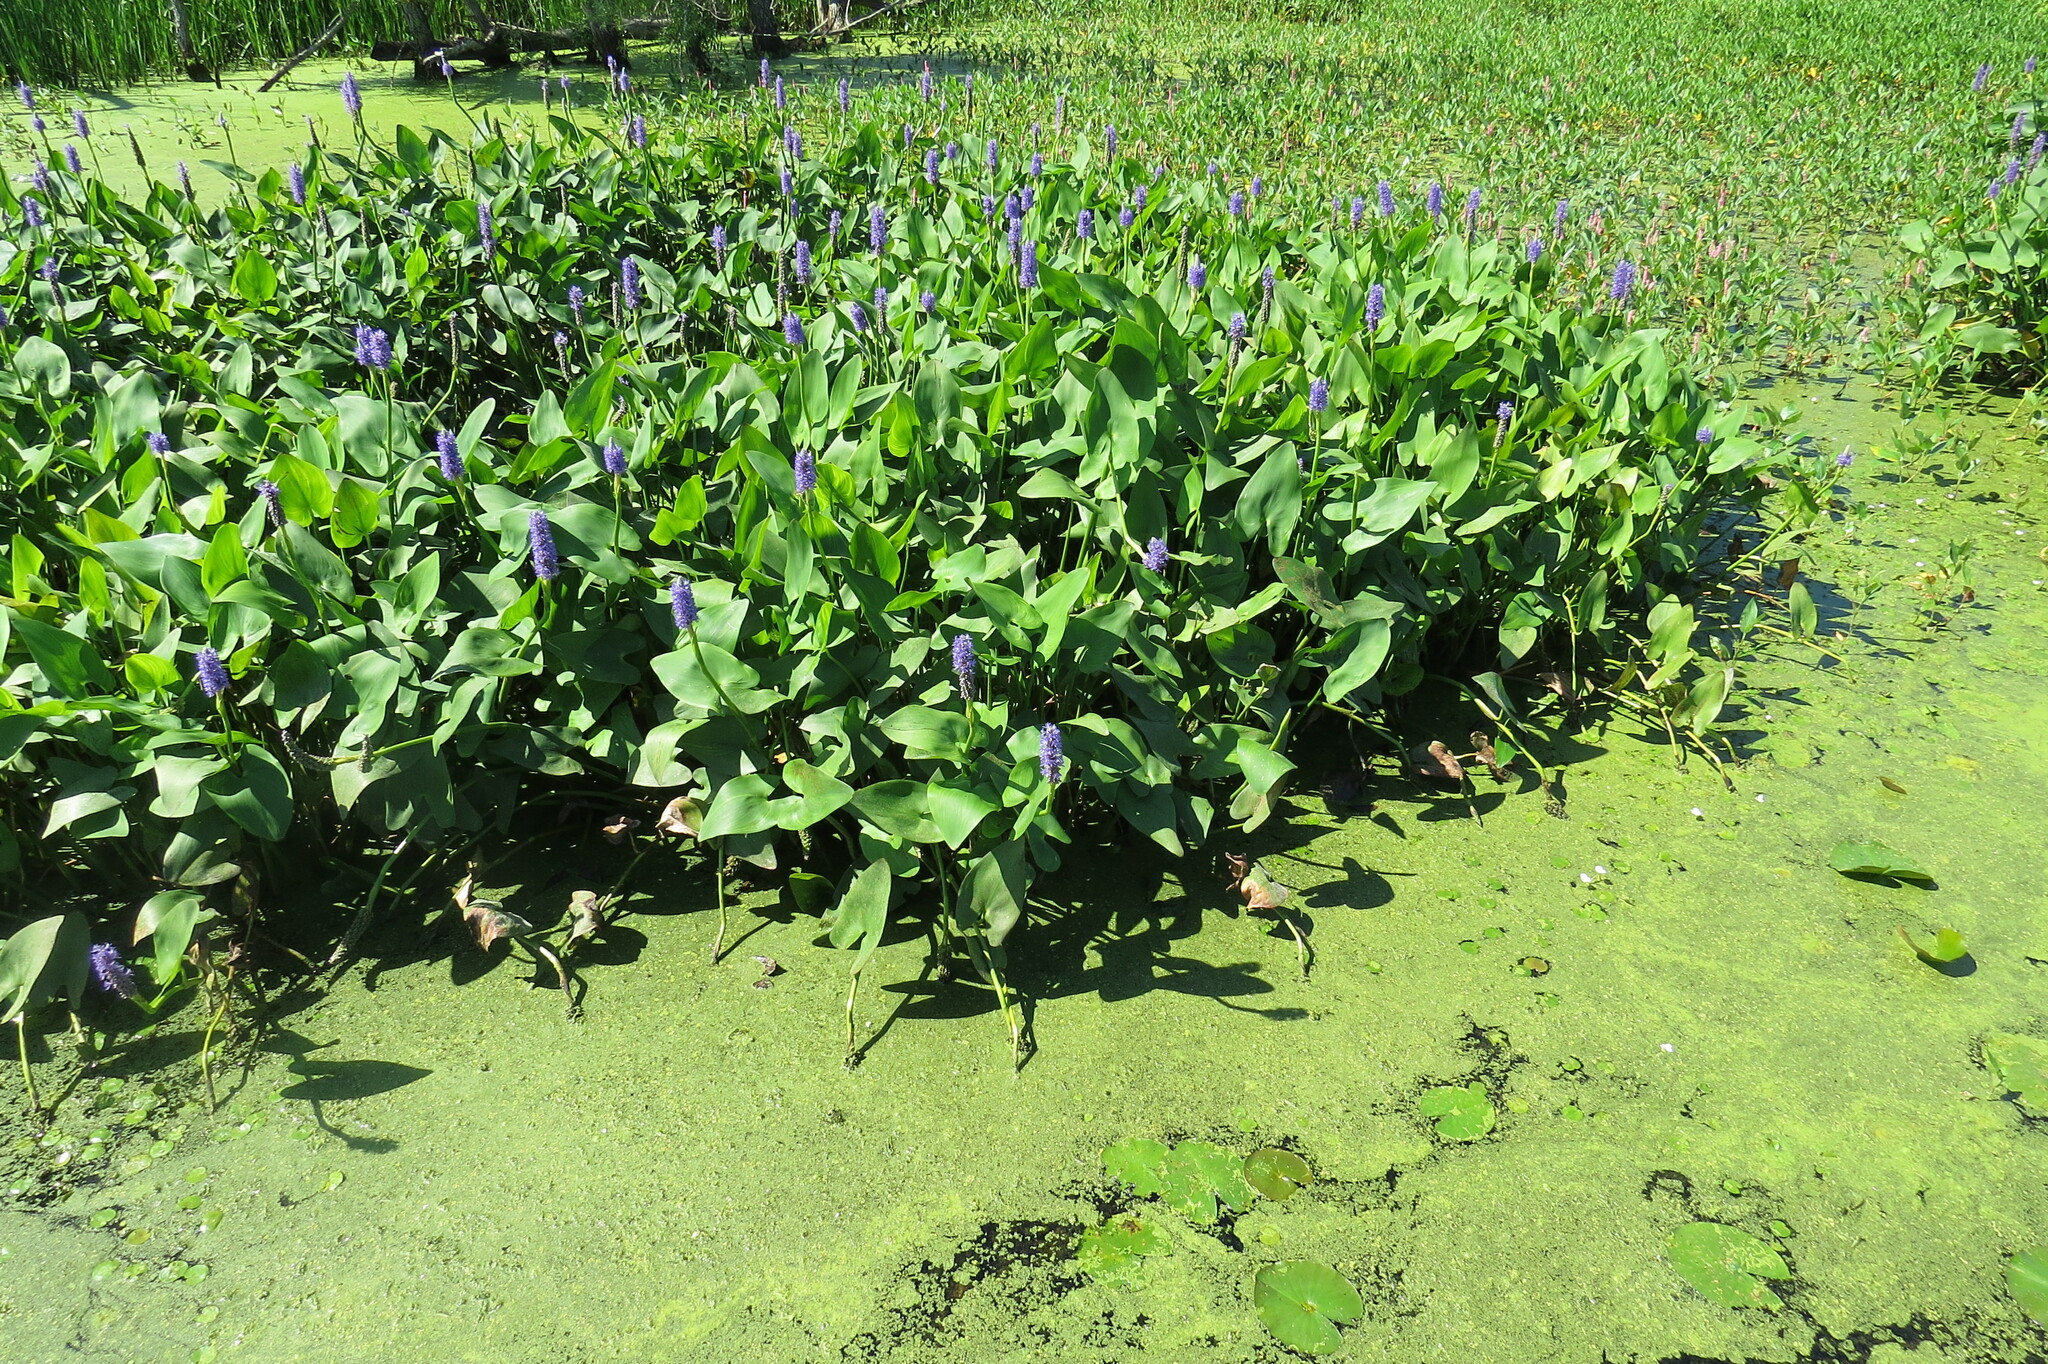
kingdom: Plantae
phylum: Tracheophyta
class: Liliopsida
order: Commelinales
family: Pontederiaceae
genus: Pontederia
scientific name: Pontederia cordata
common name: Pickerelweed
